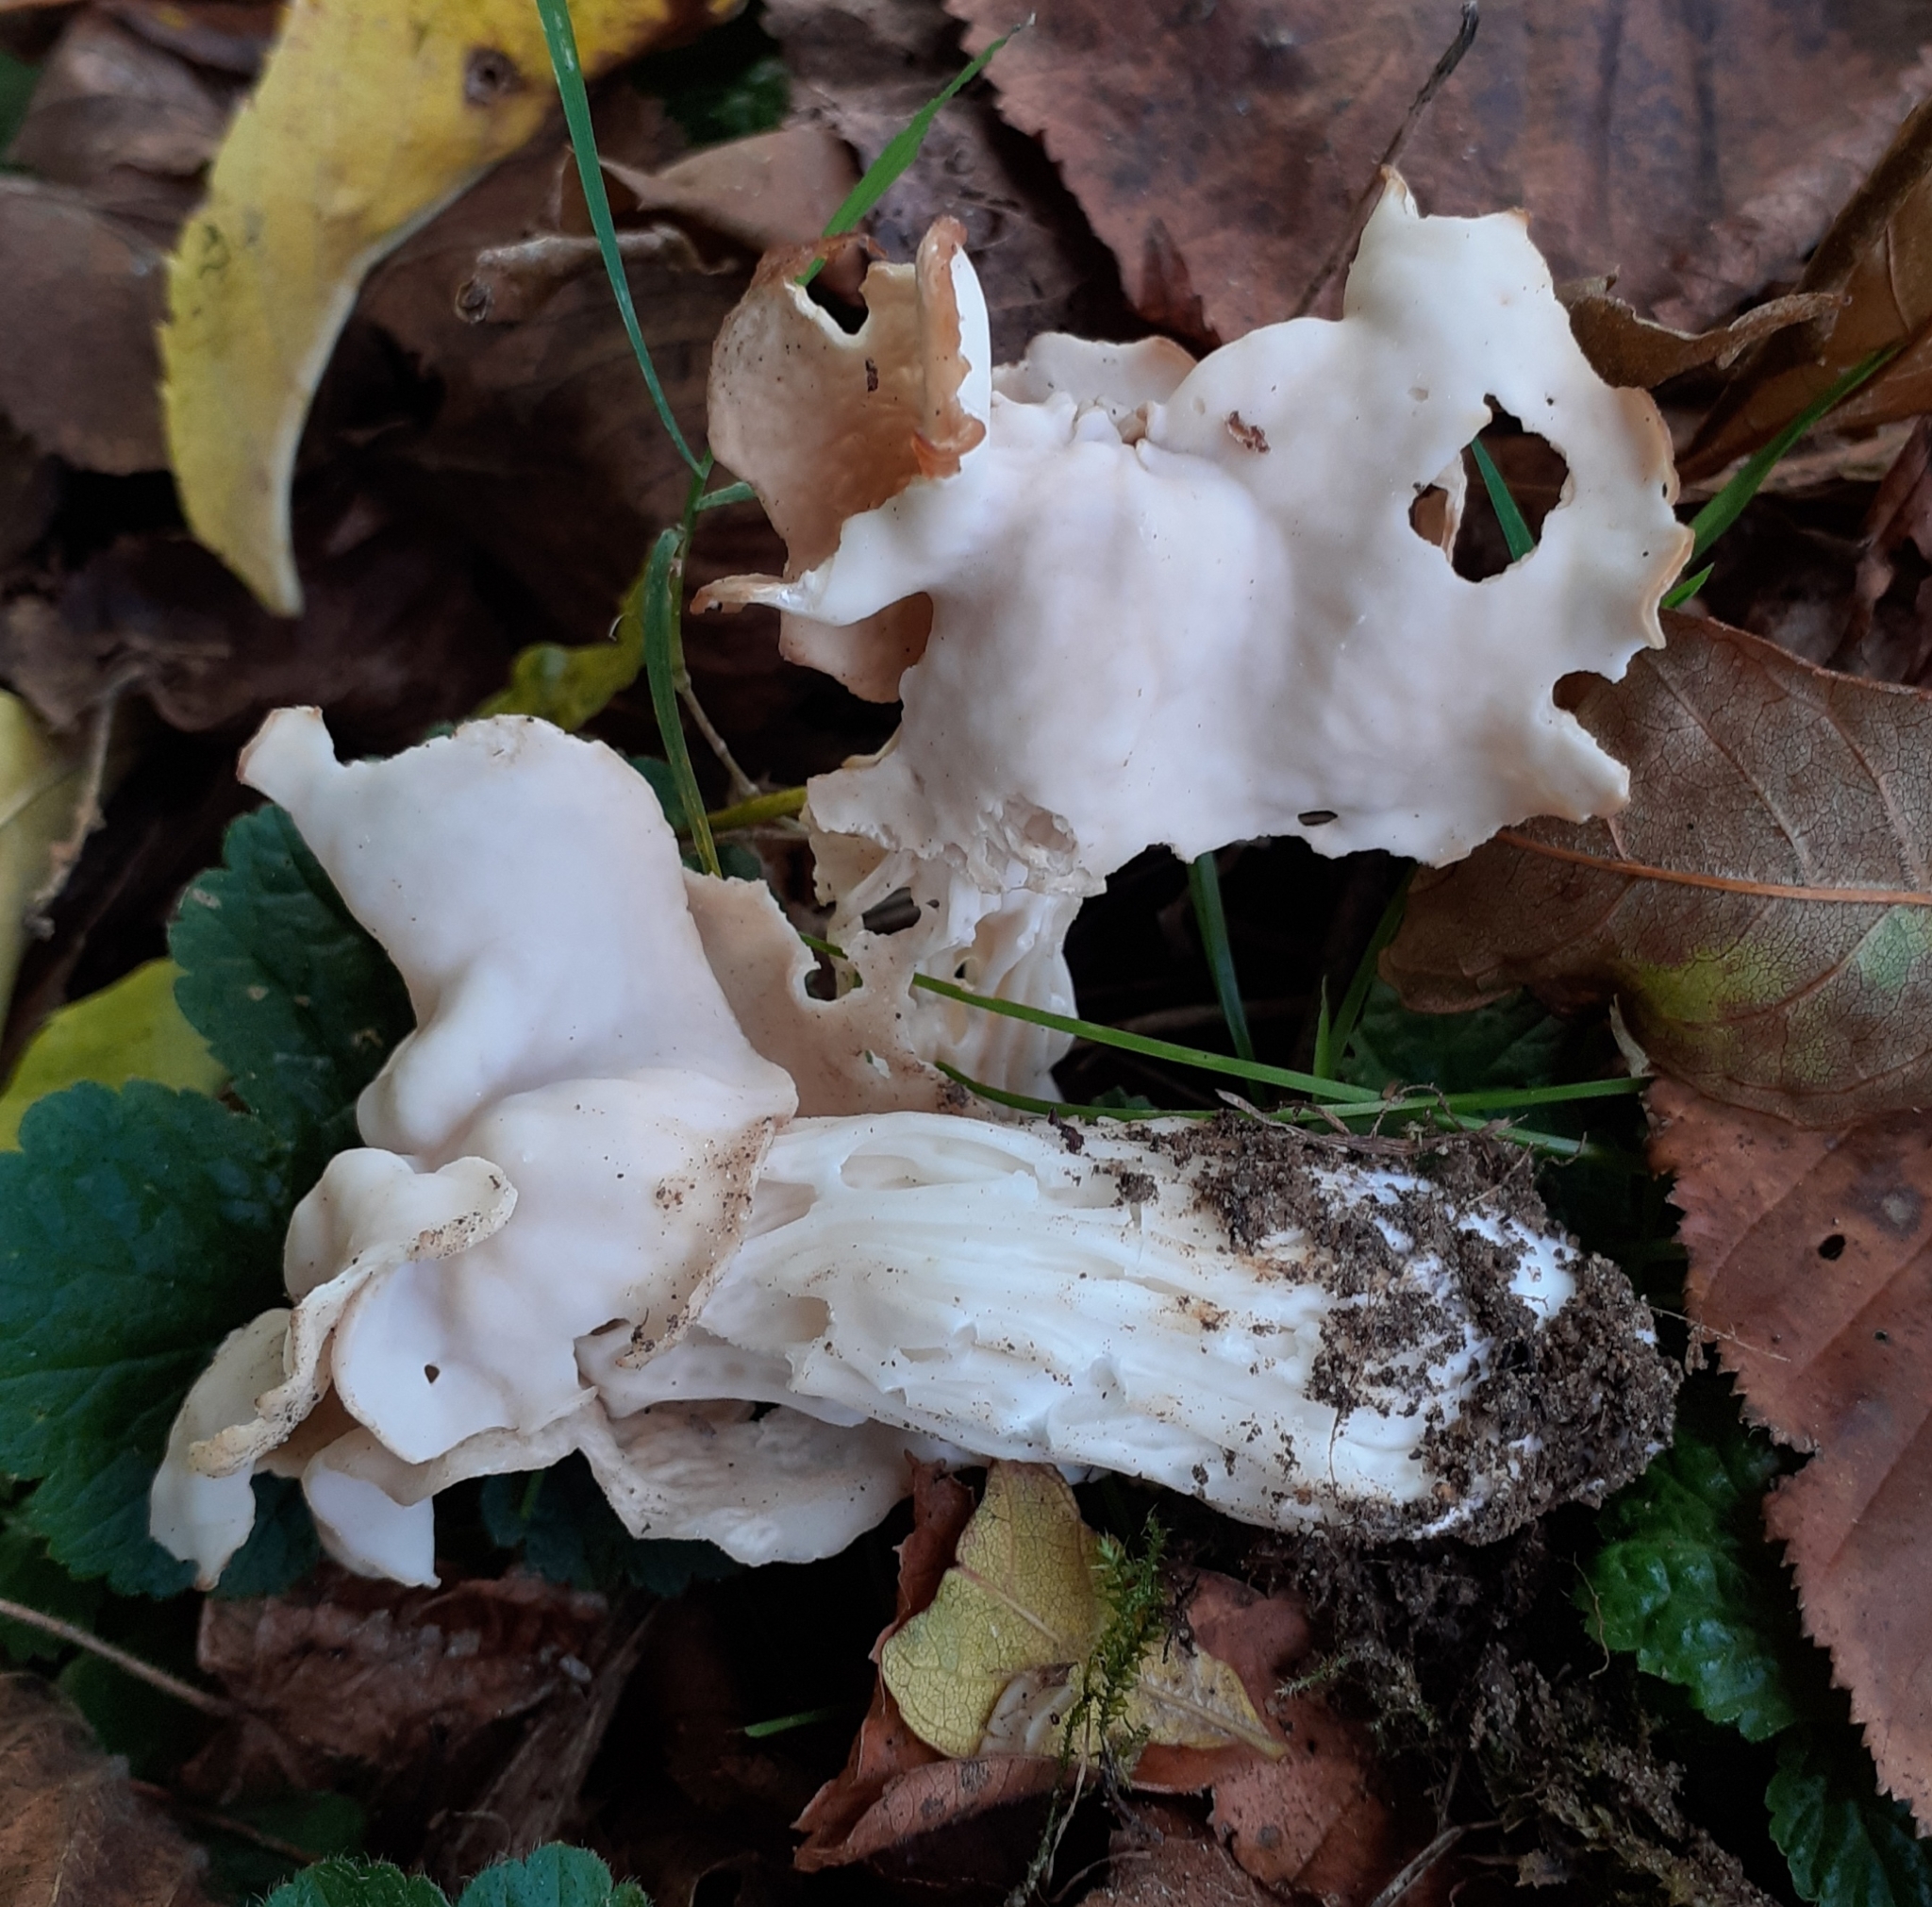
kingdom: Fungi
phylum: Ascomycota
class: Pezizomycetes
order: Pezizales
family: Helvellaceae
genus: Helvella
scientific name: Helvella crispa
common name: White saddle
